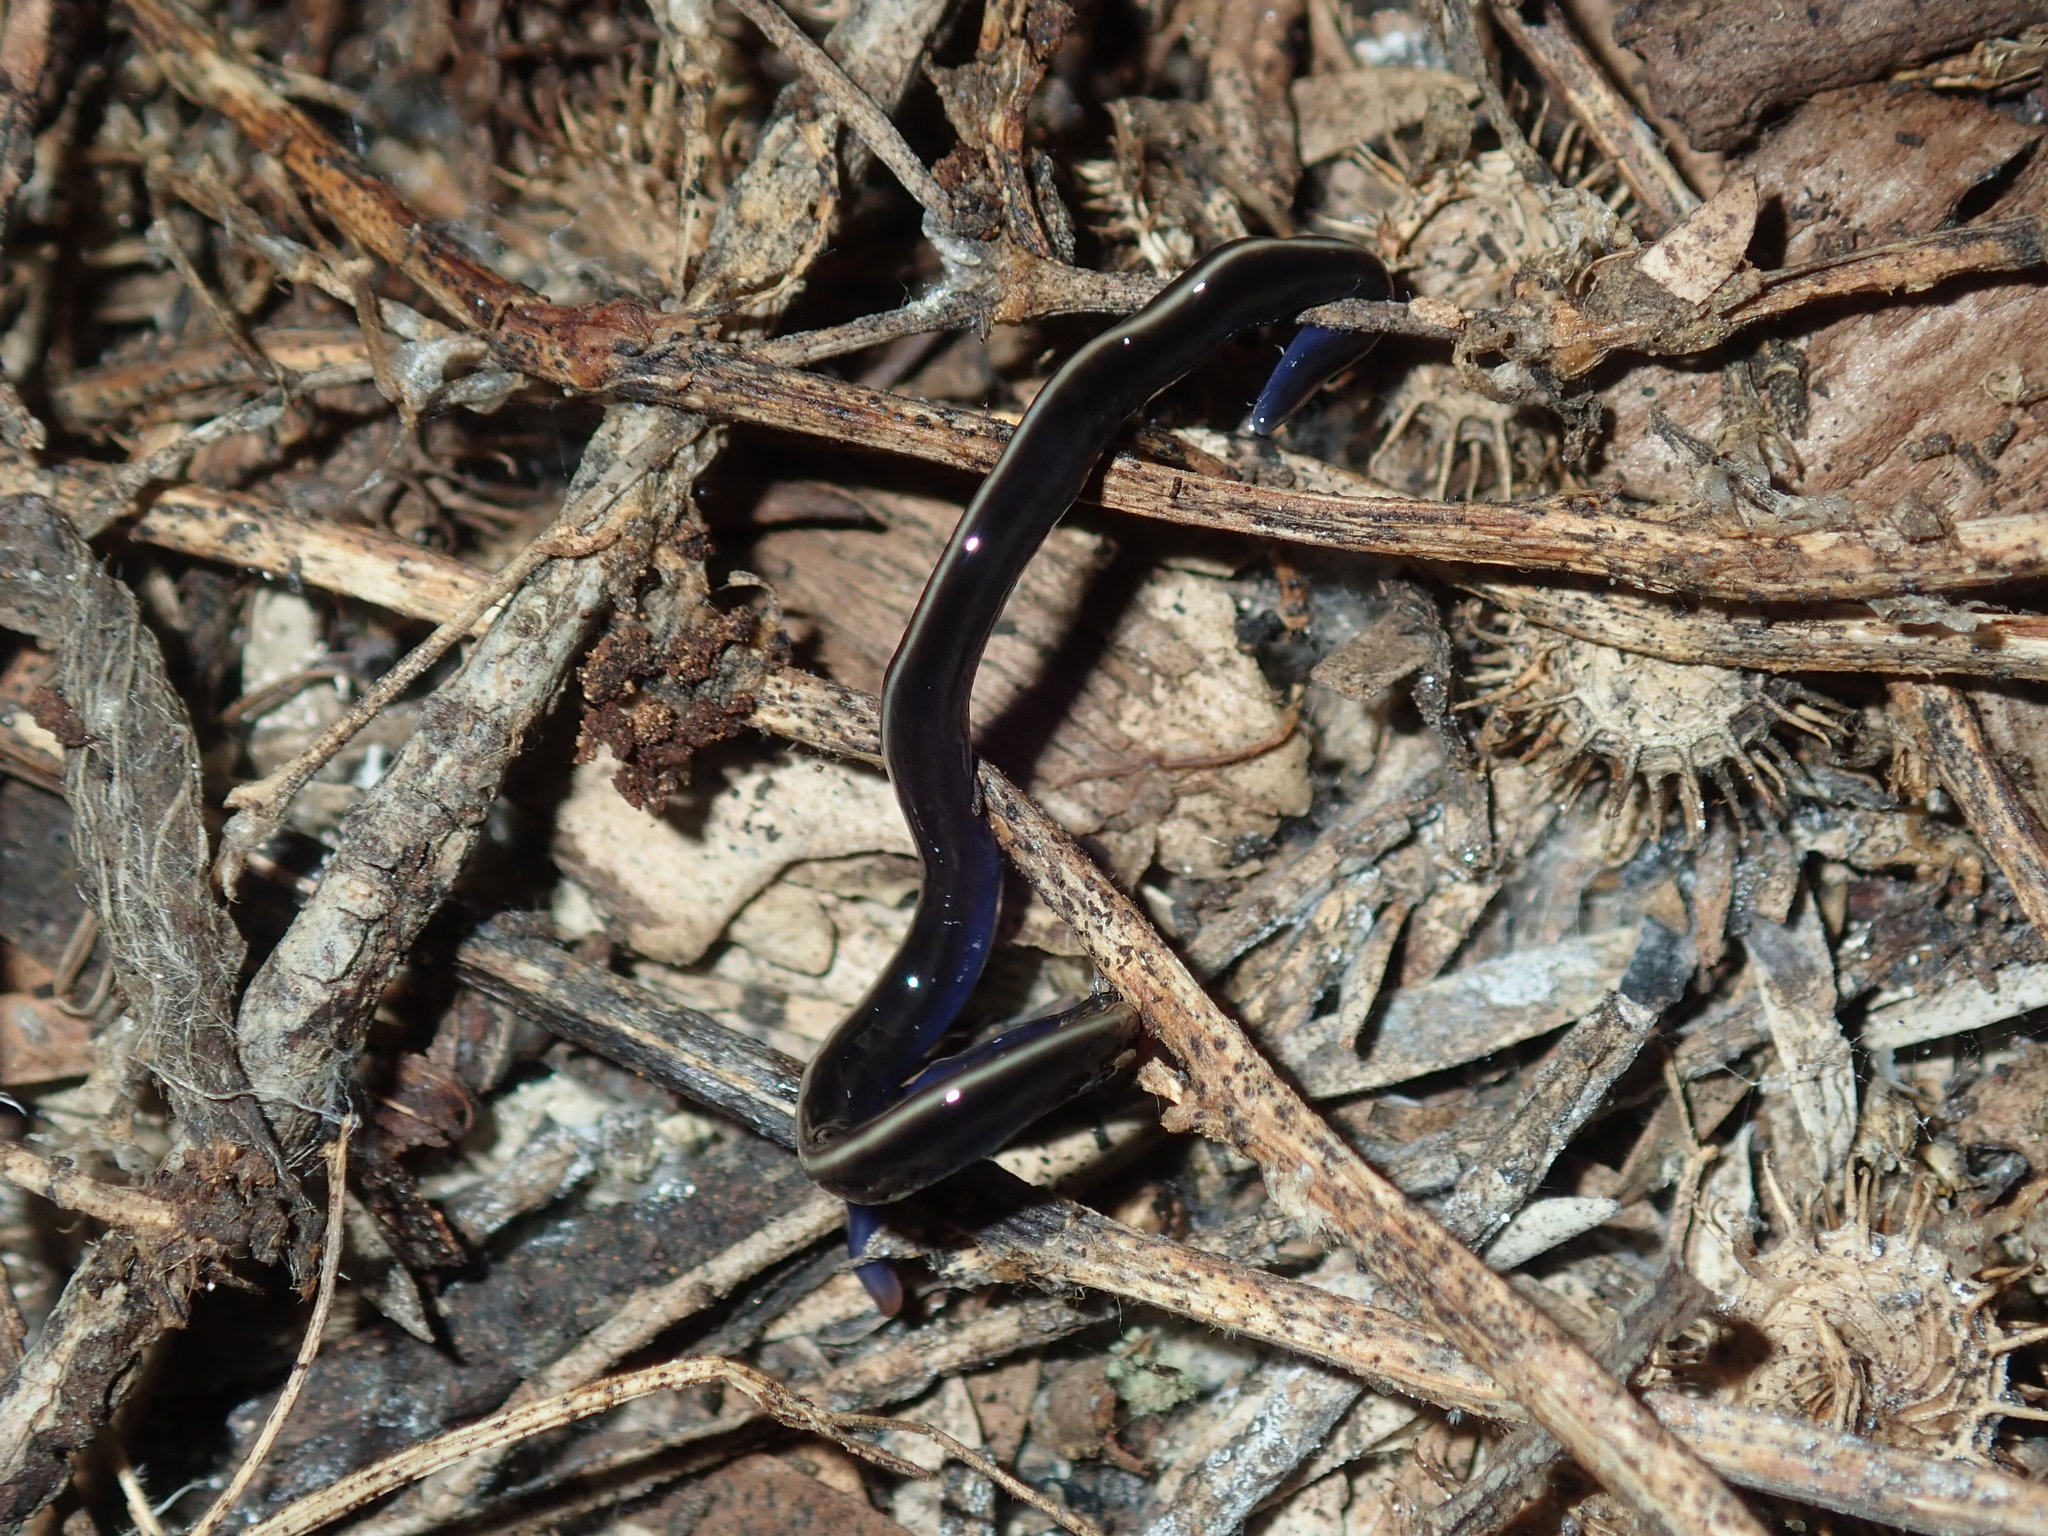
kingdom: Animalia
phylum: Platyhelminthes
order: Tricladida
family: Geoplanidae
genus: Caenoplana
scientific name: Caenoplana coerulea
